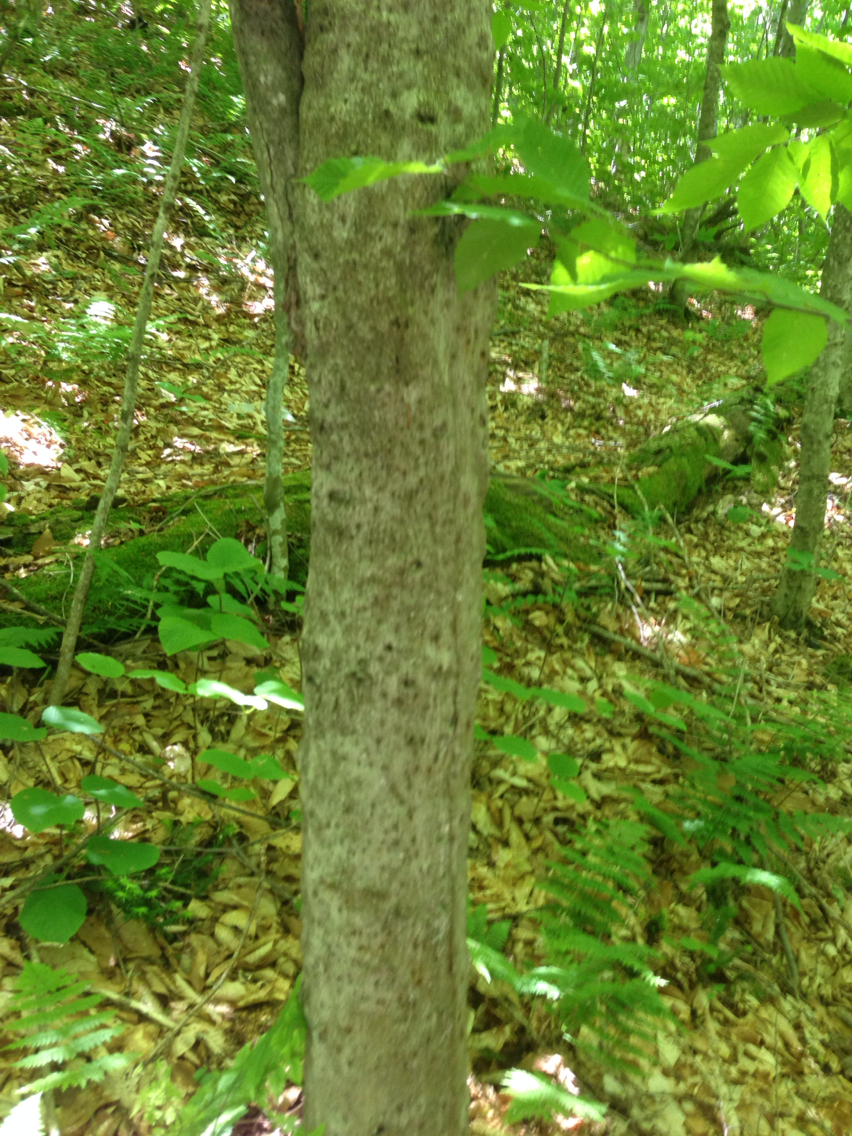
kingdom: Plantae
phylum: Tracheophyta
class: Magnoliopsida
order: Fagales
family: Fagaceae
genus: Fagus
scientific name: Fagus grandifolia
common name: American beech
